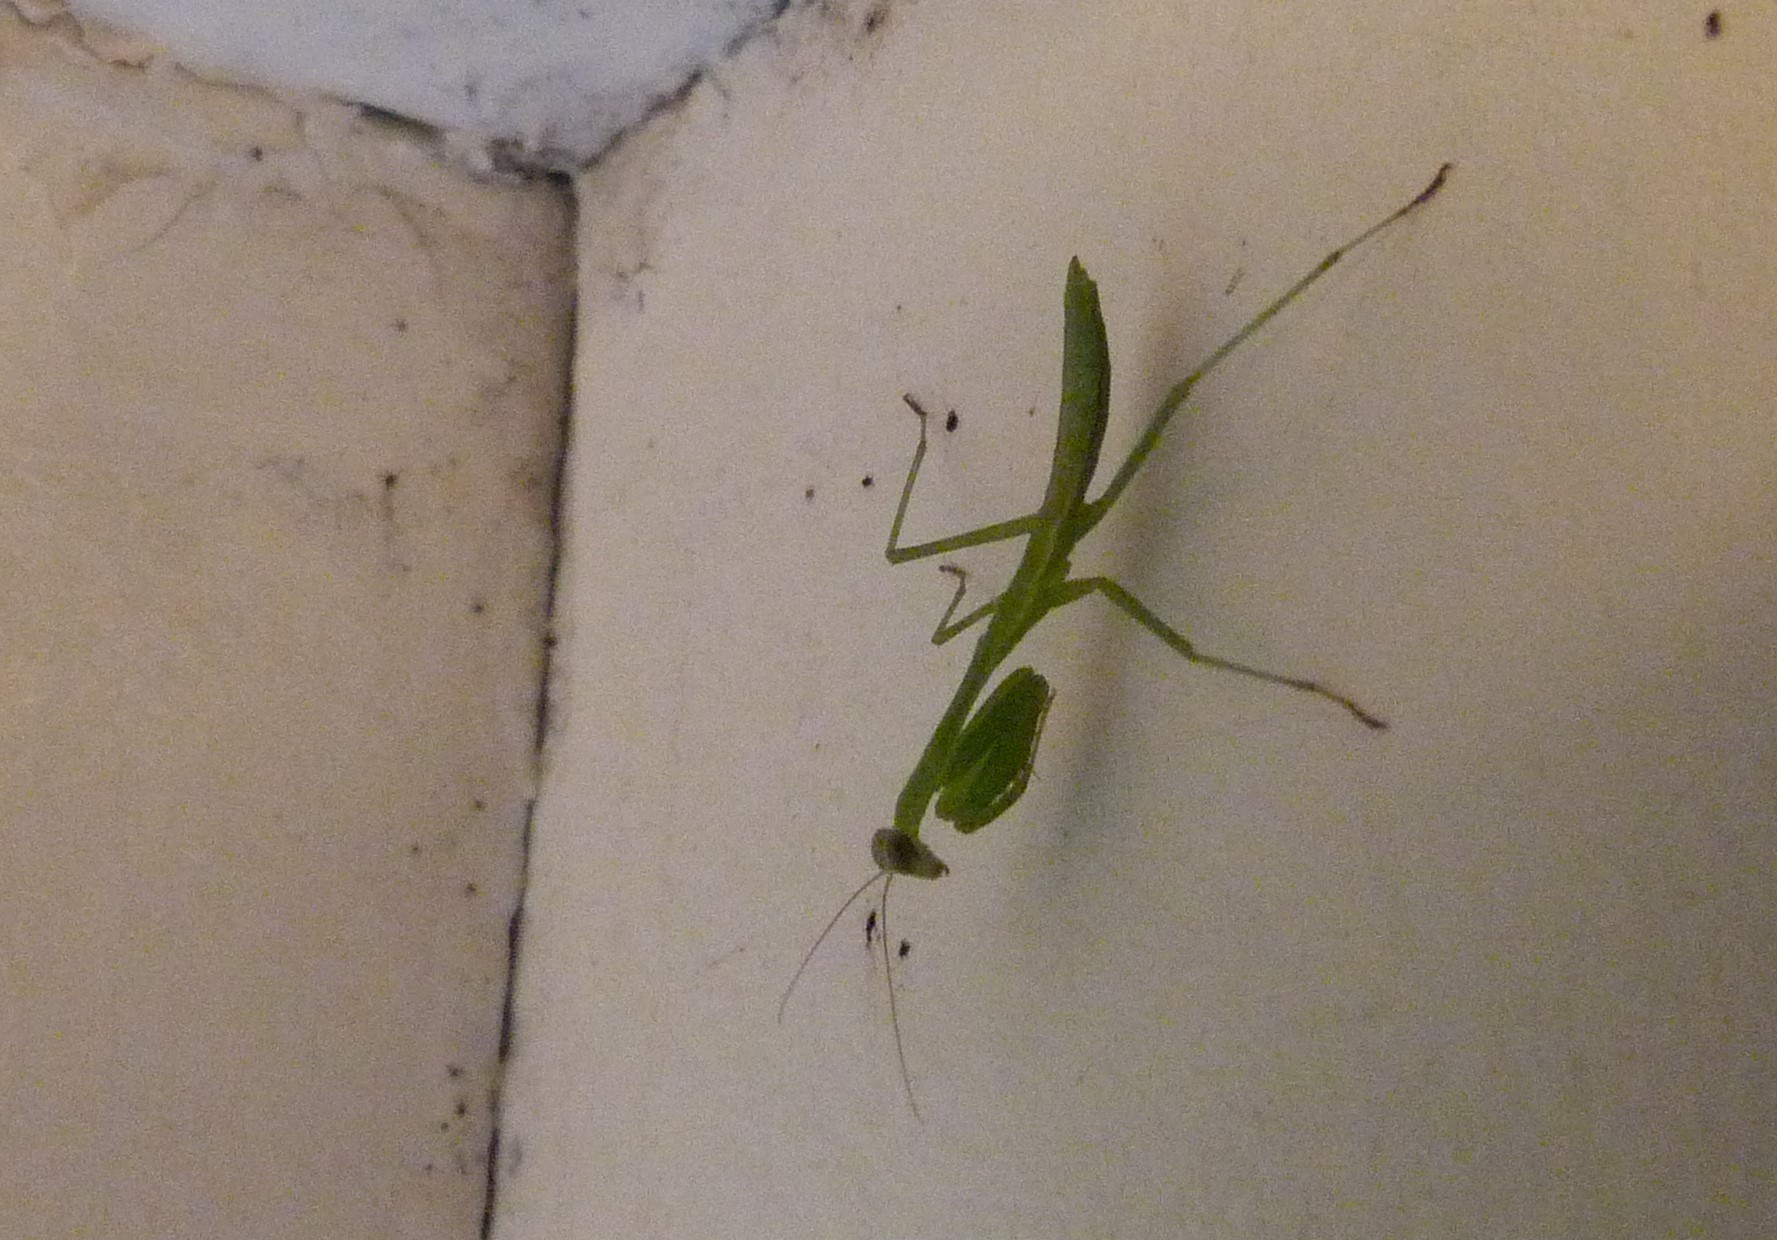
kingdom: Animalia
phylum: Arthropoda
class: Insecta
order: Mantodea
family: Miomantidae
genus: Miomantis
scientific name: Miomantis caffra
